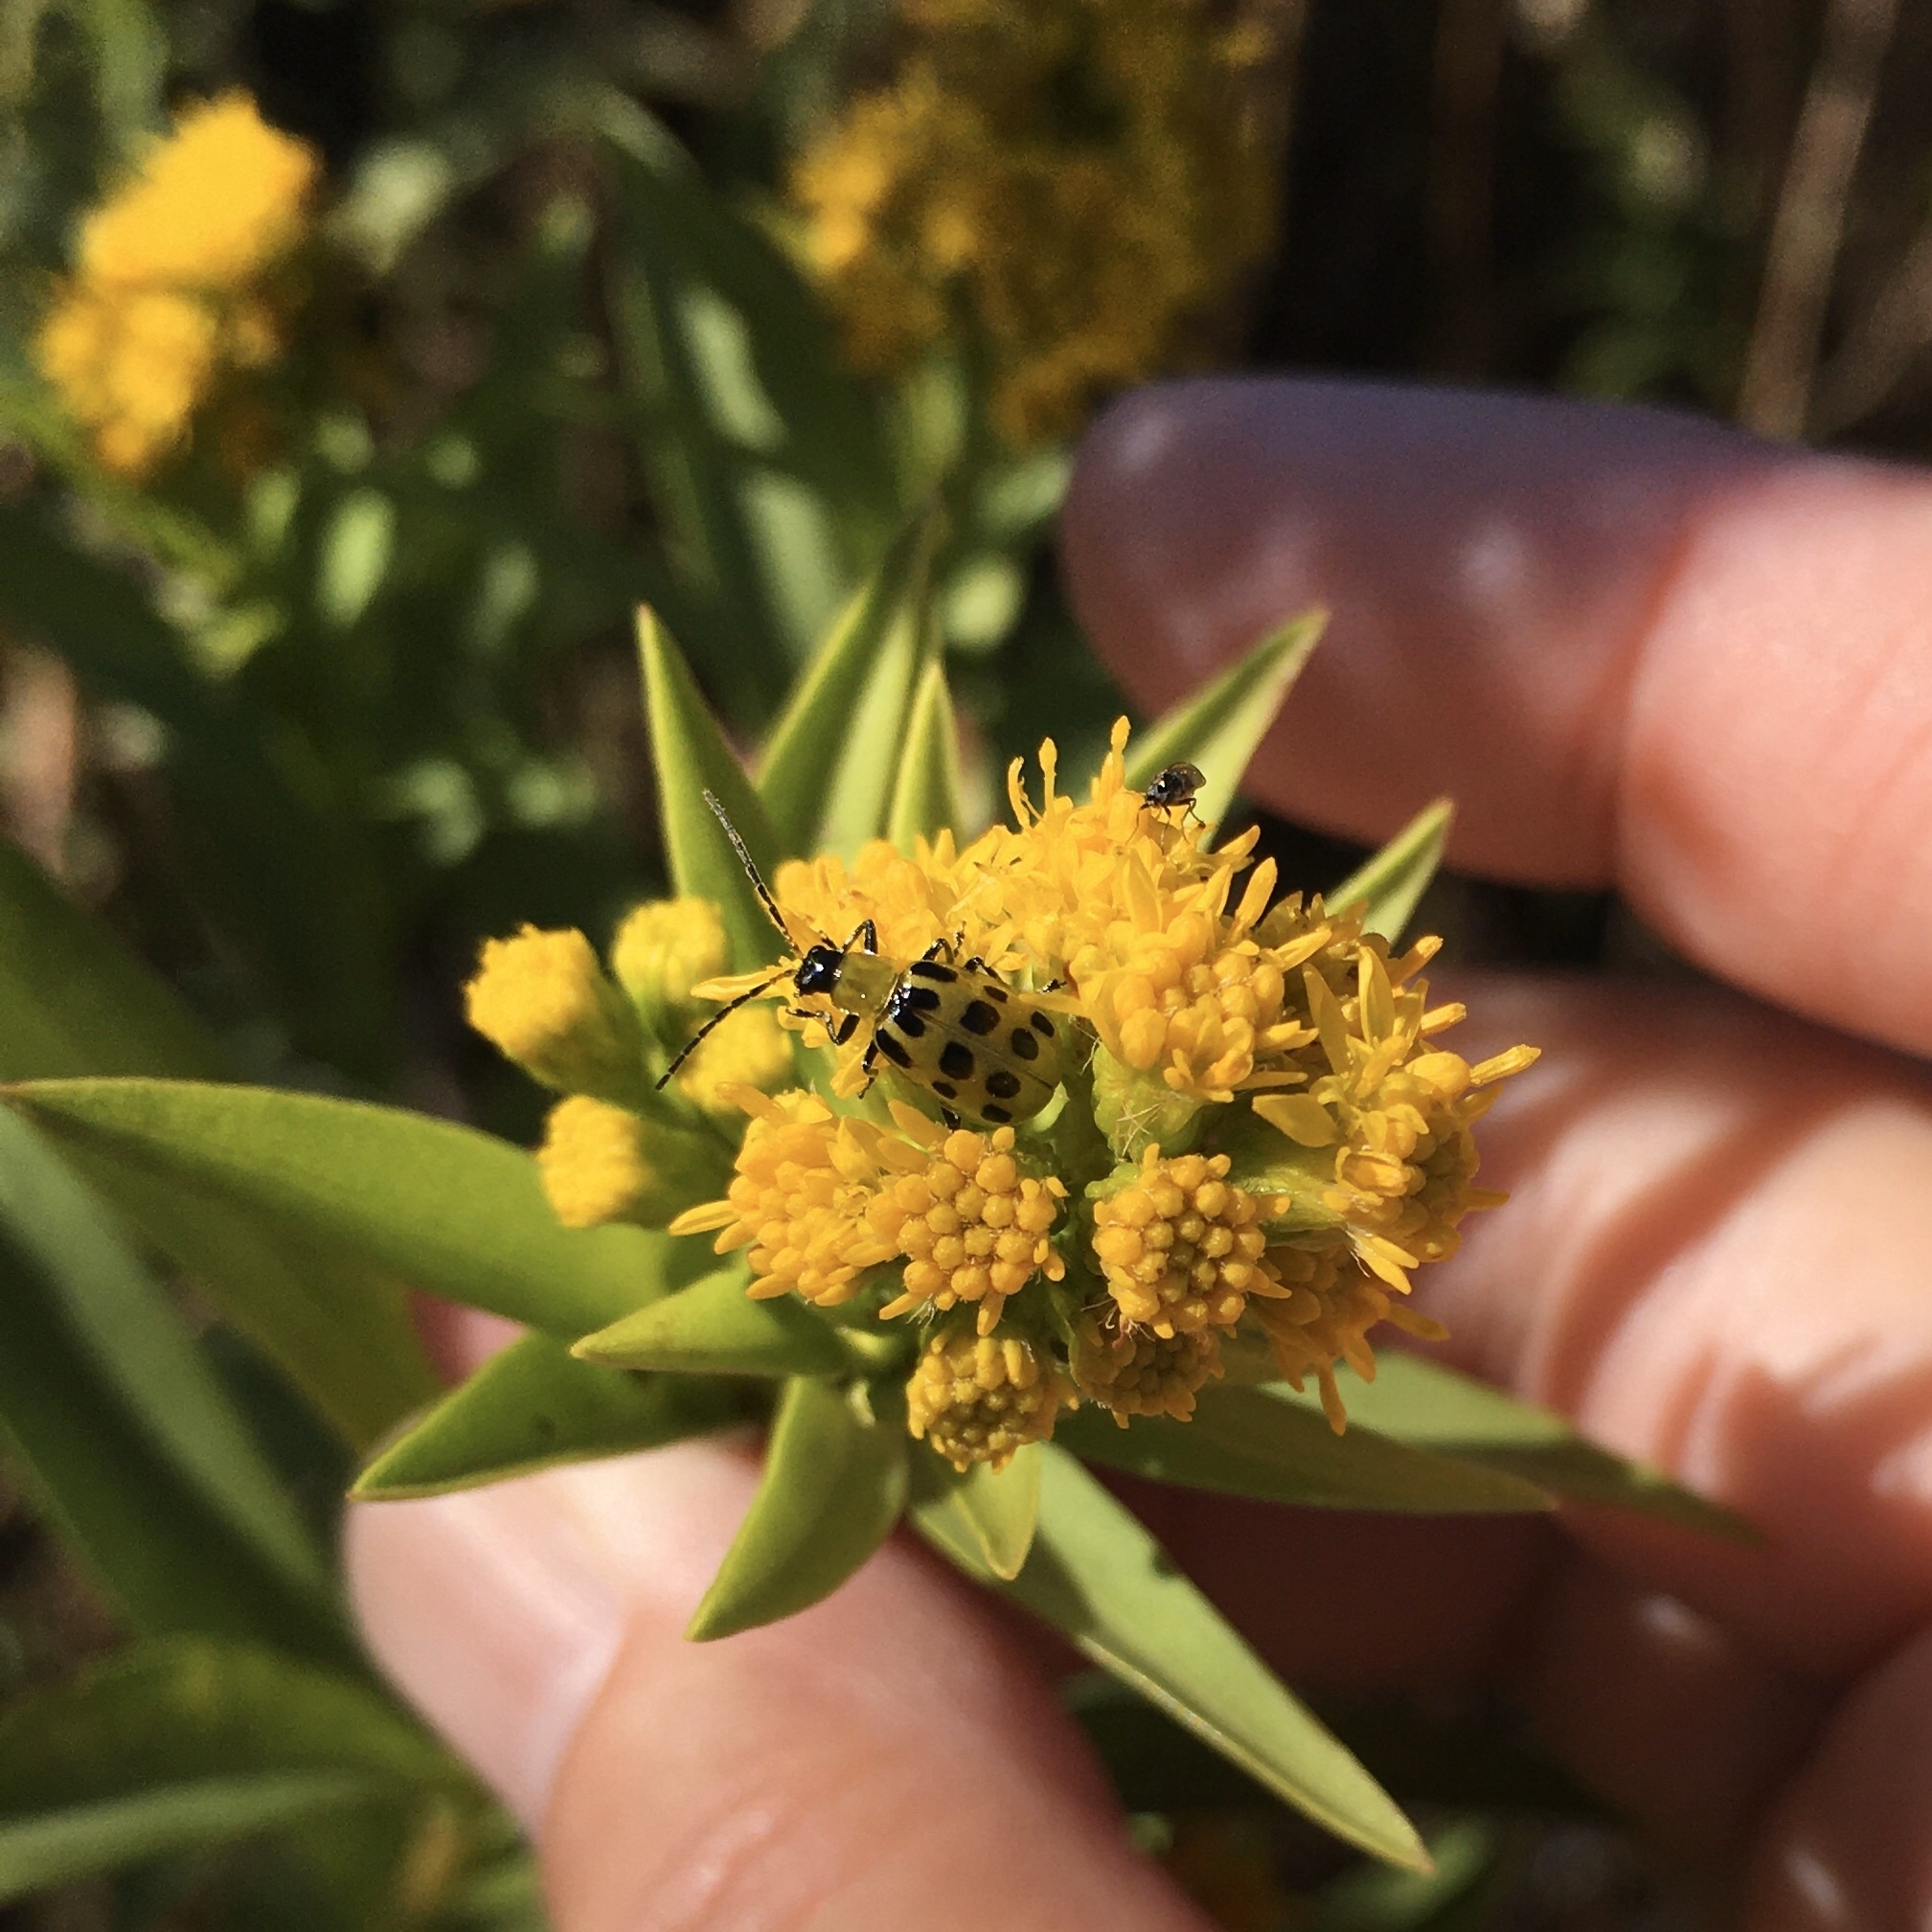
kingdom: Animalia
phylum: Arthropoda
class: Insecta
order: Coleoptera
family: Chrysomelidae
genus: Diabrotica
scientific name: Diabrotica undecimpunctata
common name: Spotted cucumber beetle
